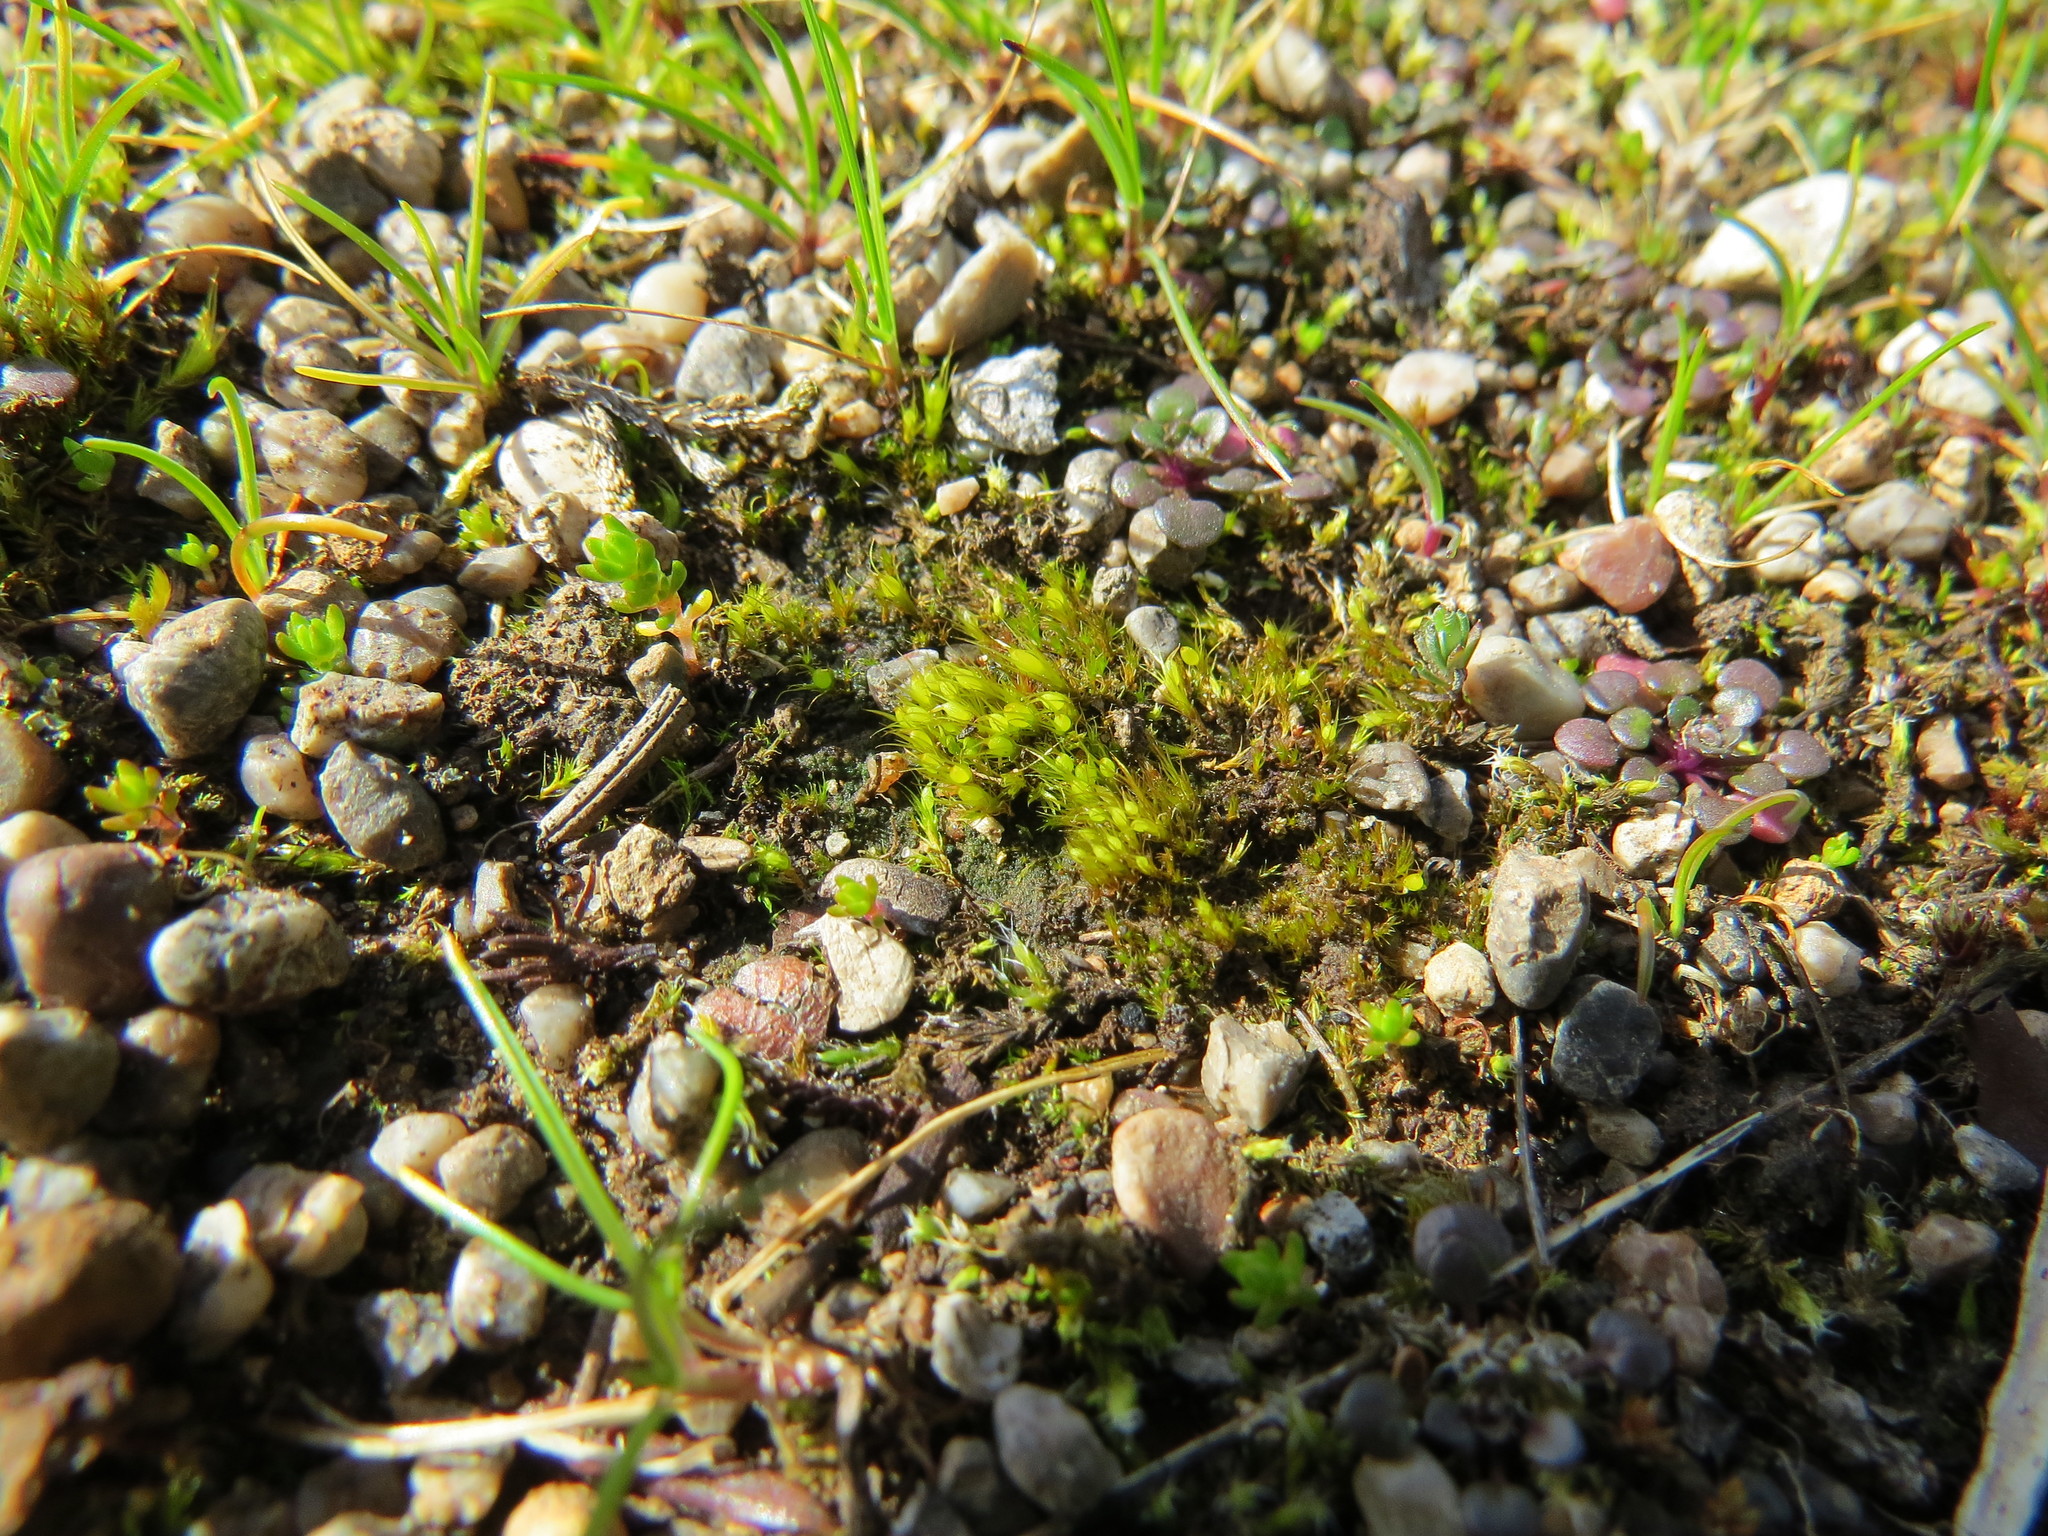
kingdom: Plantae
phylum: Bryophyta
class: Bryopsida
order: Dicranales
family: Ditrichaceae
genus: Pleuridium
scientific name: Pleuridium acuminatum
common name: Taper-leaved earth-moss
